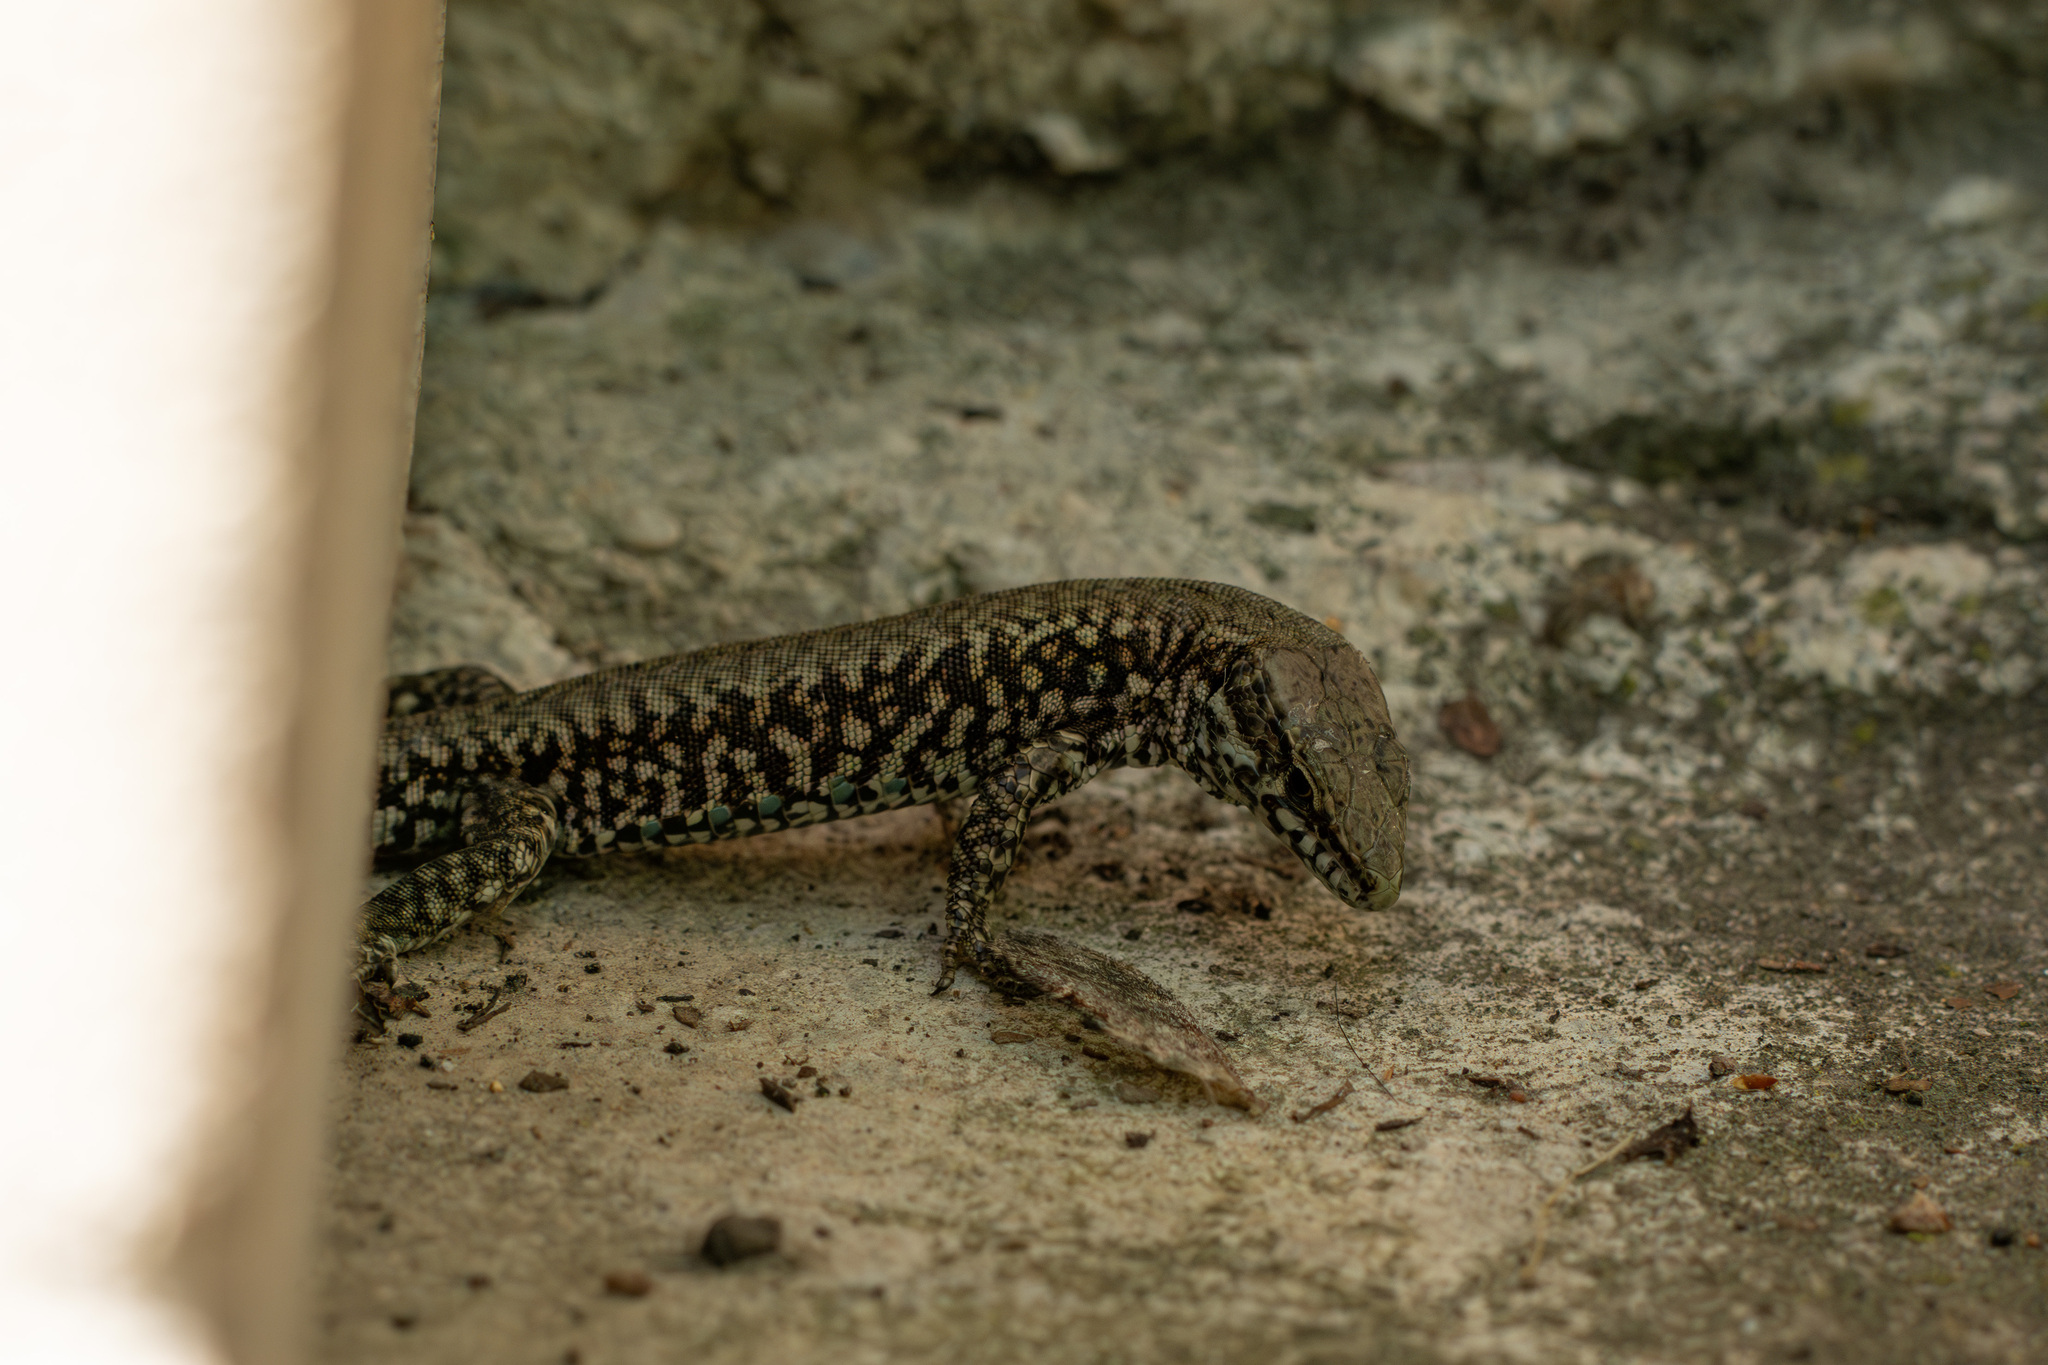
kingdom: Animalia
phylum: Chordata
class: Squamata
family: Lacertidae
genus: Podarcis
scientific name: Podarcis muralis
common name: Common wall lizard
